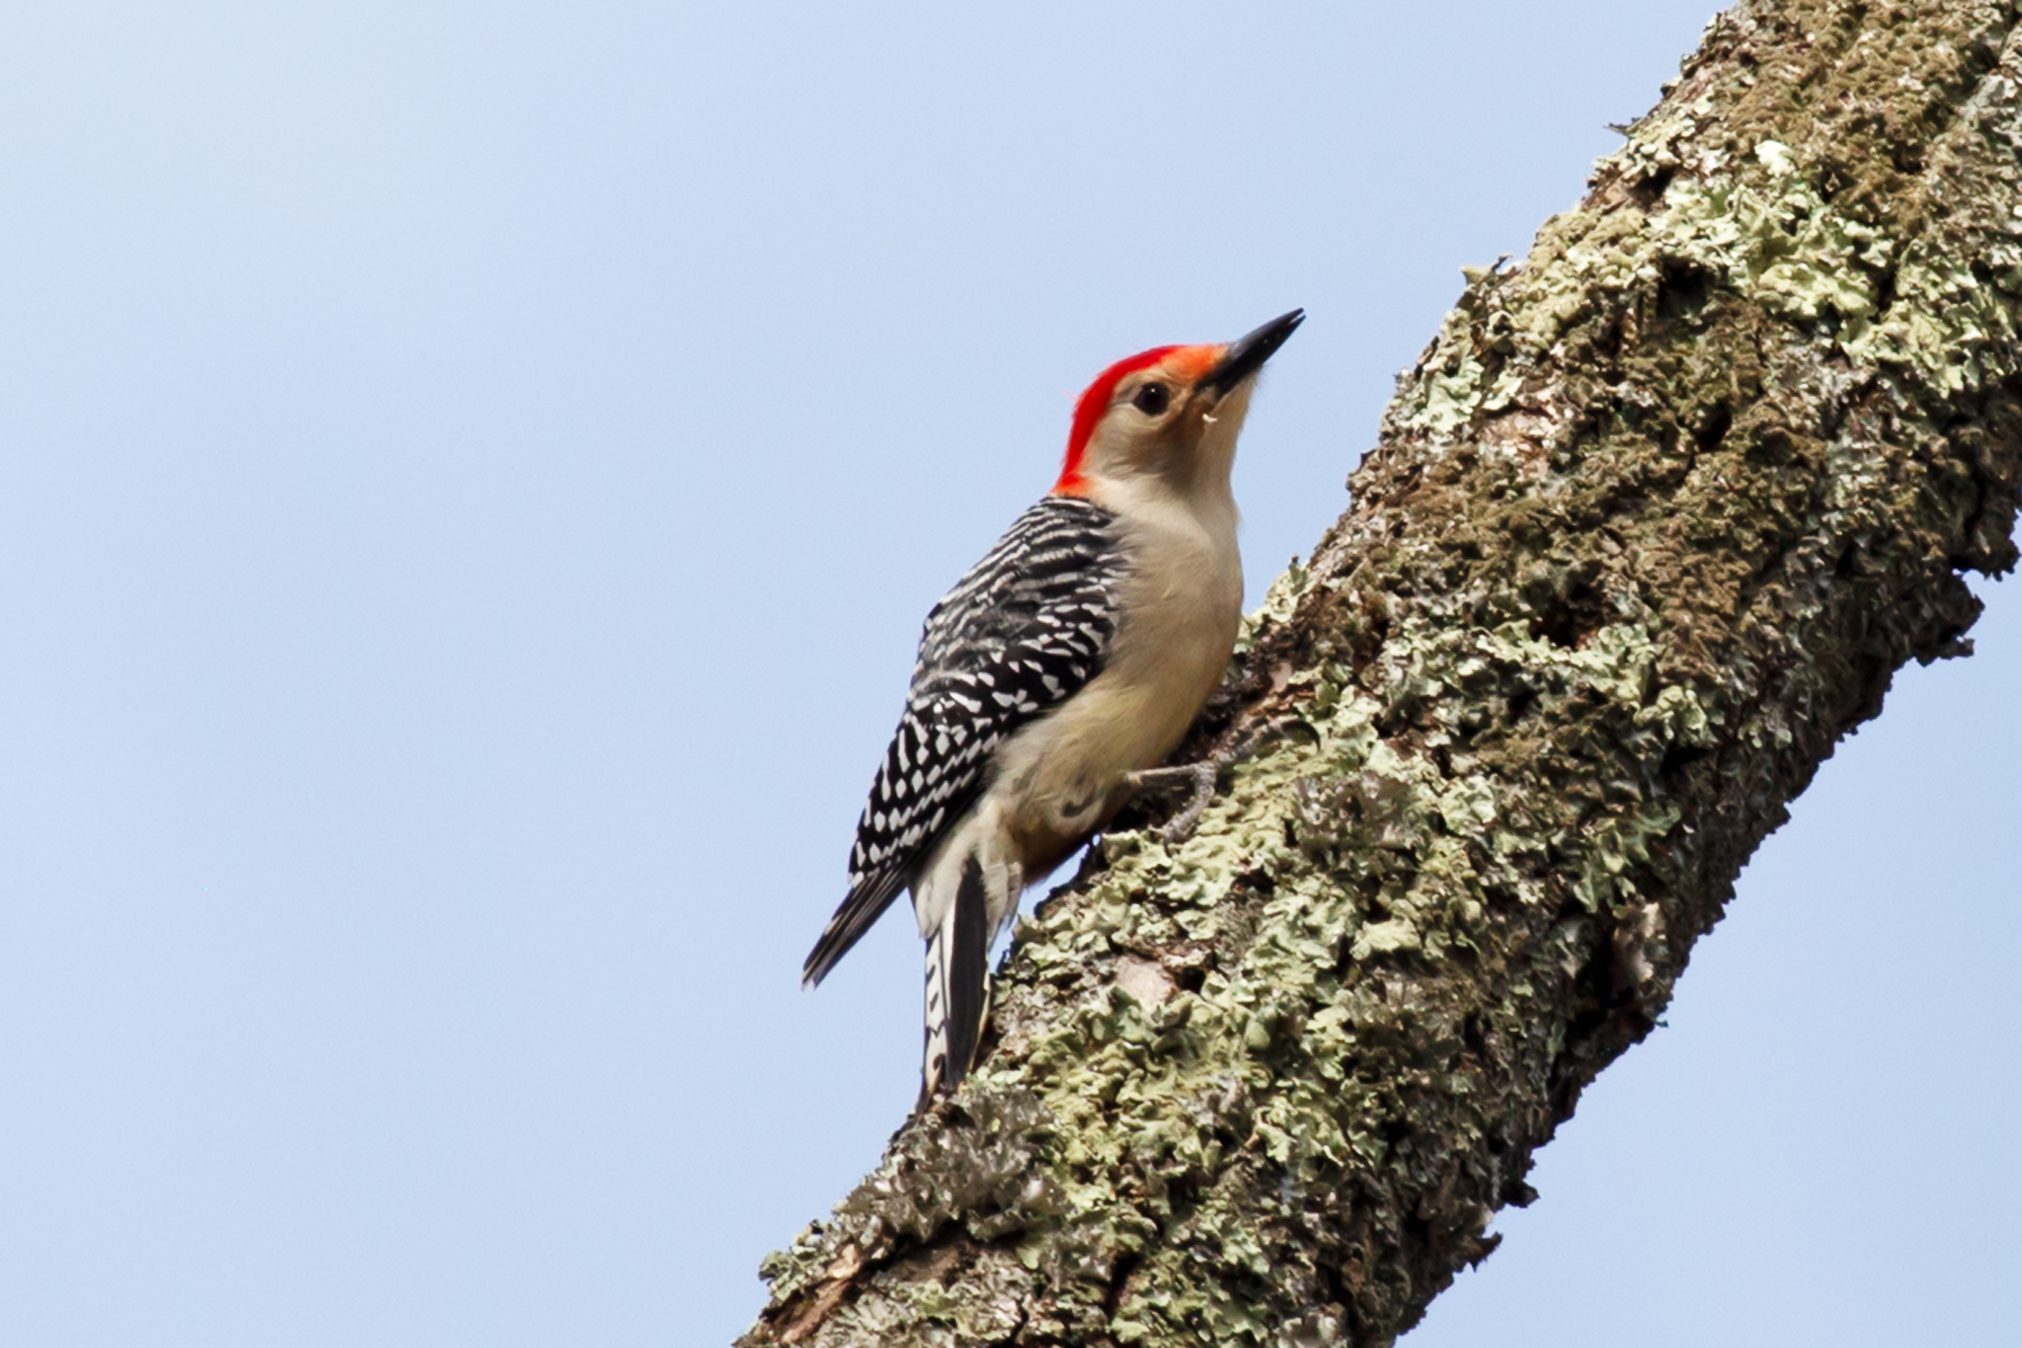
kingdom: Animalia
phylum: Chordata
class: Aves
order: Piciformes
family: Picidae
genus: Melanerpes
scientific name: Melanerpes carolinus
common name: Red-bellied woodpecker
